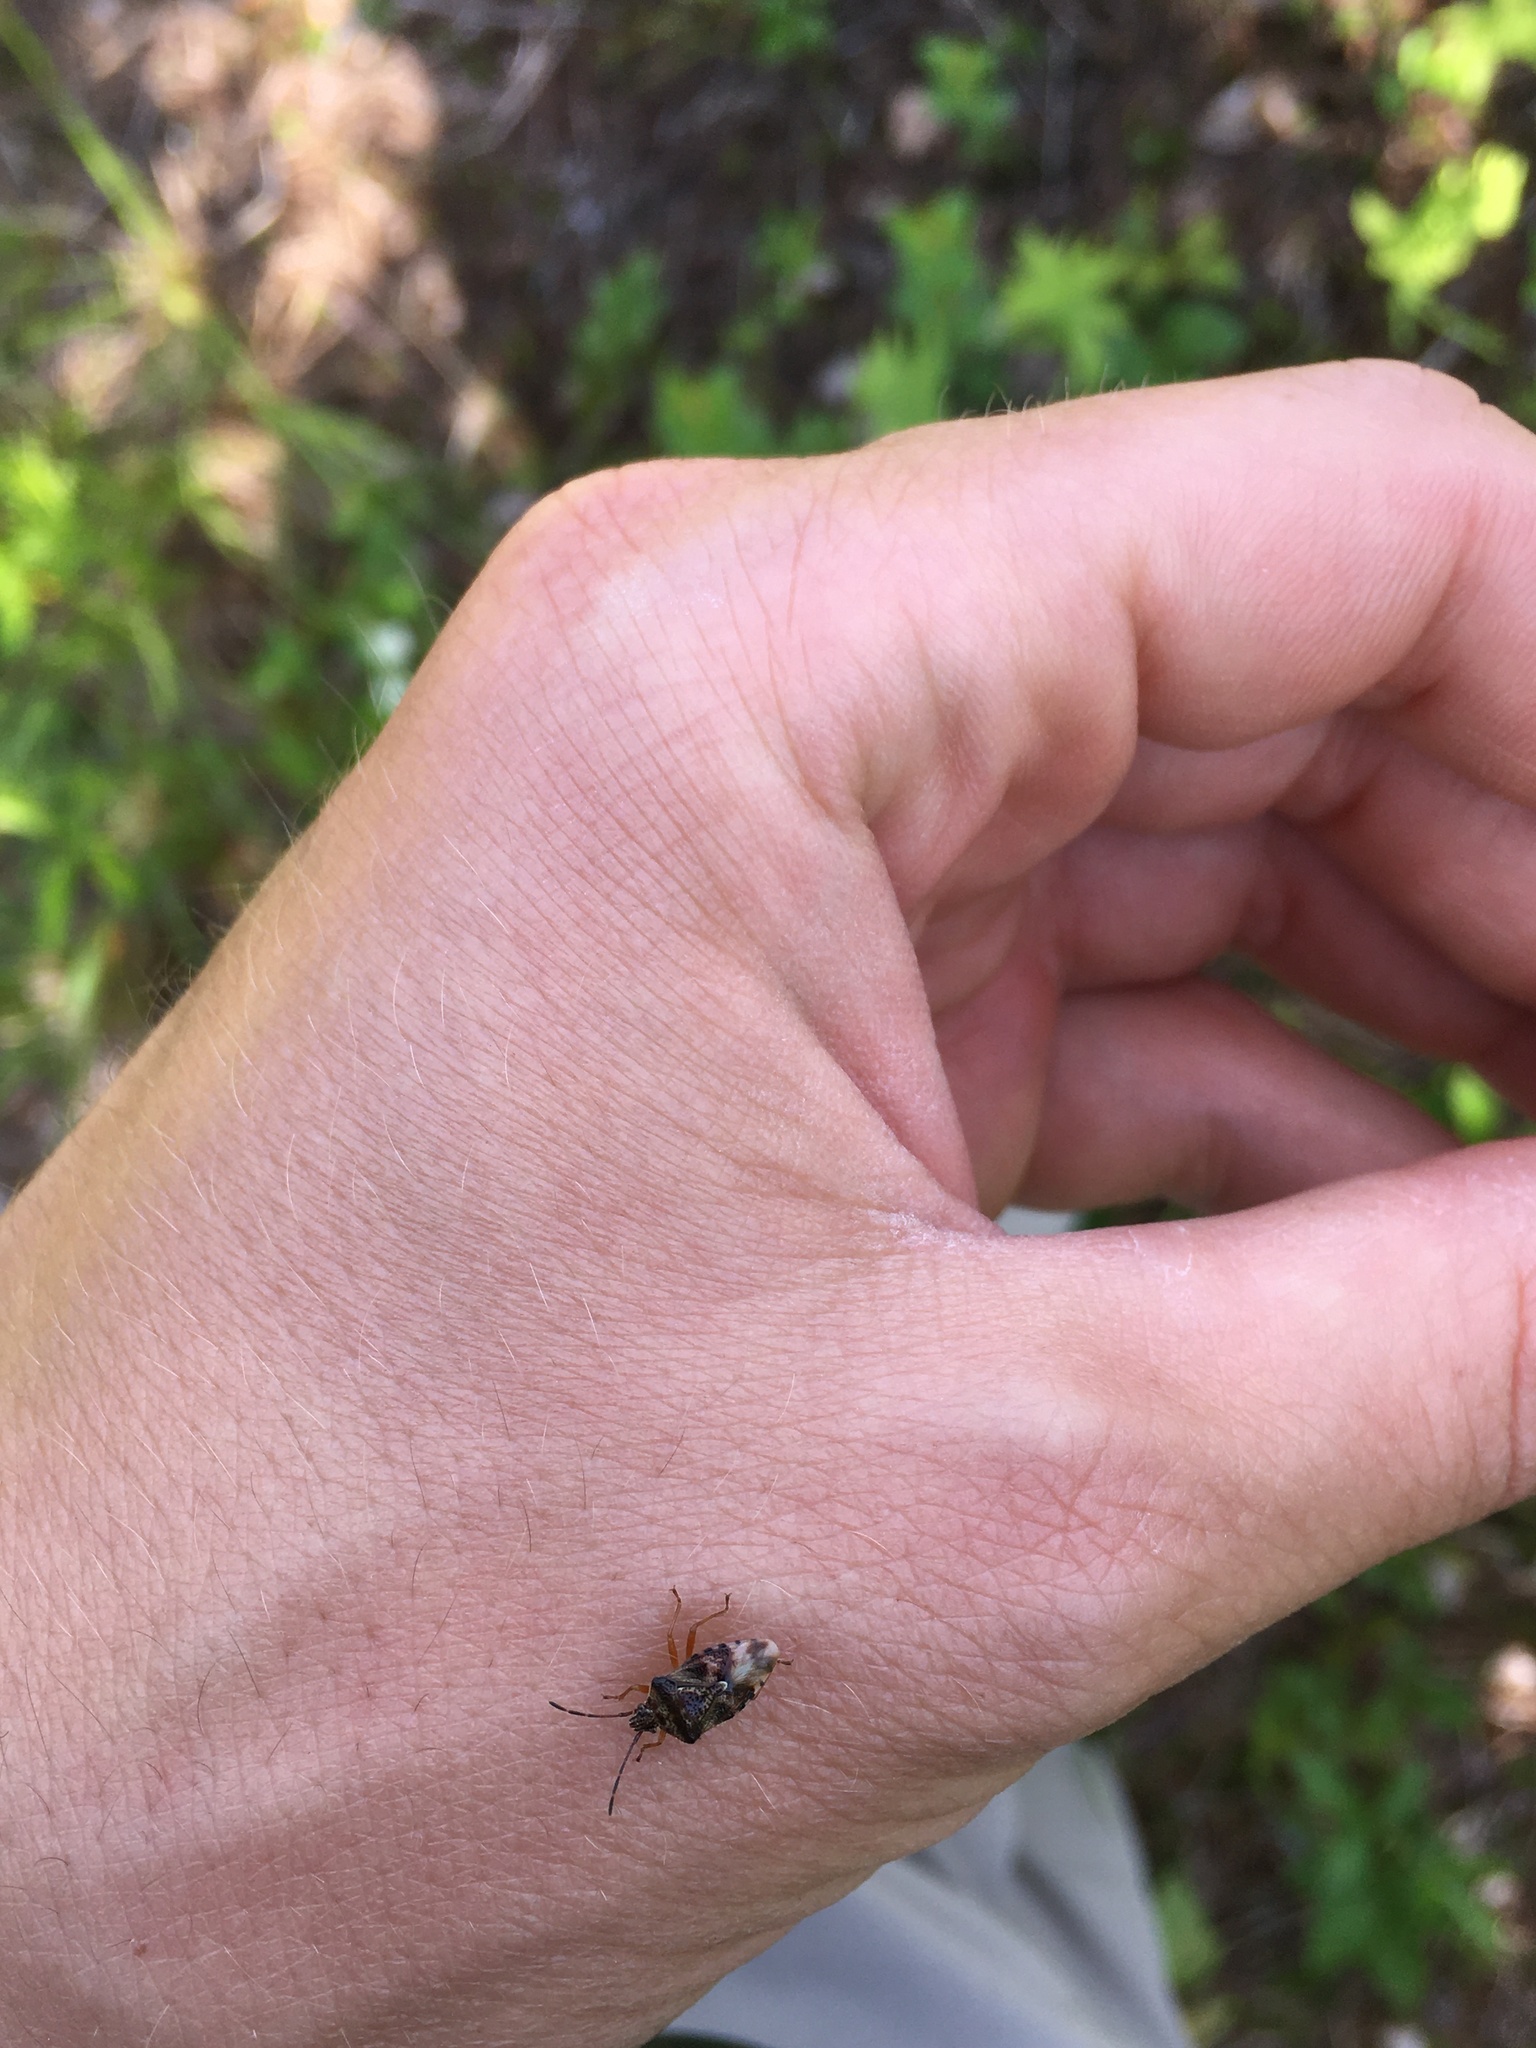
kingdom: Animalia
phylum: Arthropoda
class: Insecta
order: Hemiptera
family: Acanthosomatidae
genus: Elasmucha
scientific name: Elasmucha lateralis
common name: Shield bug
